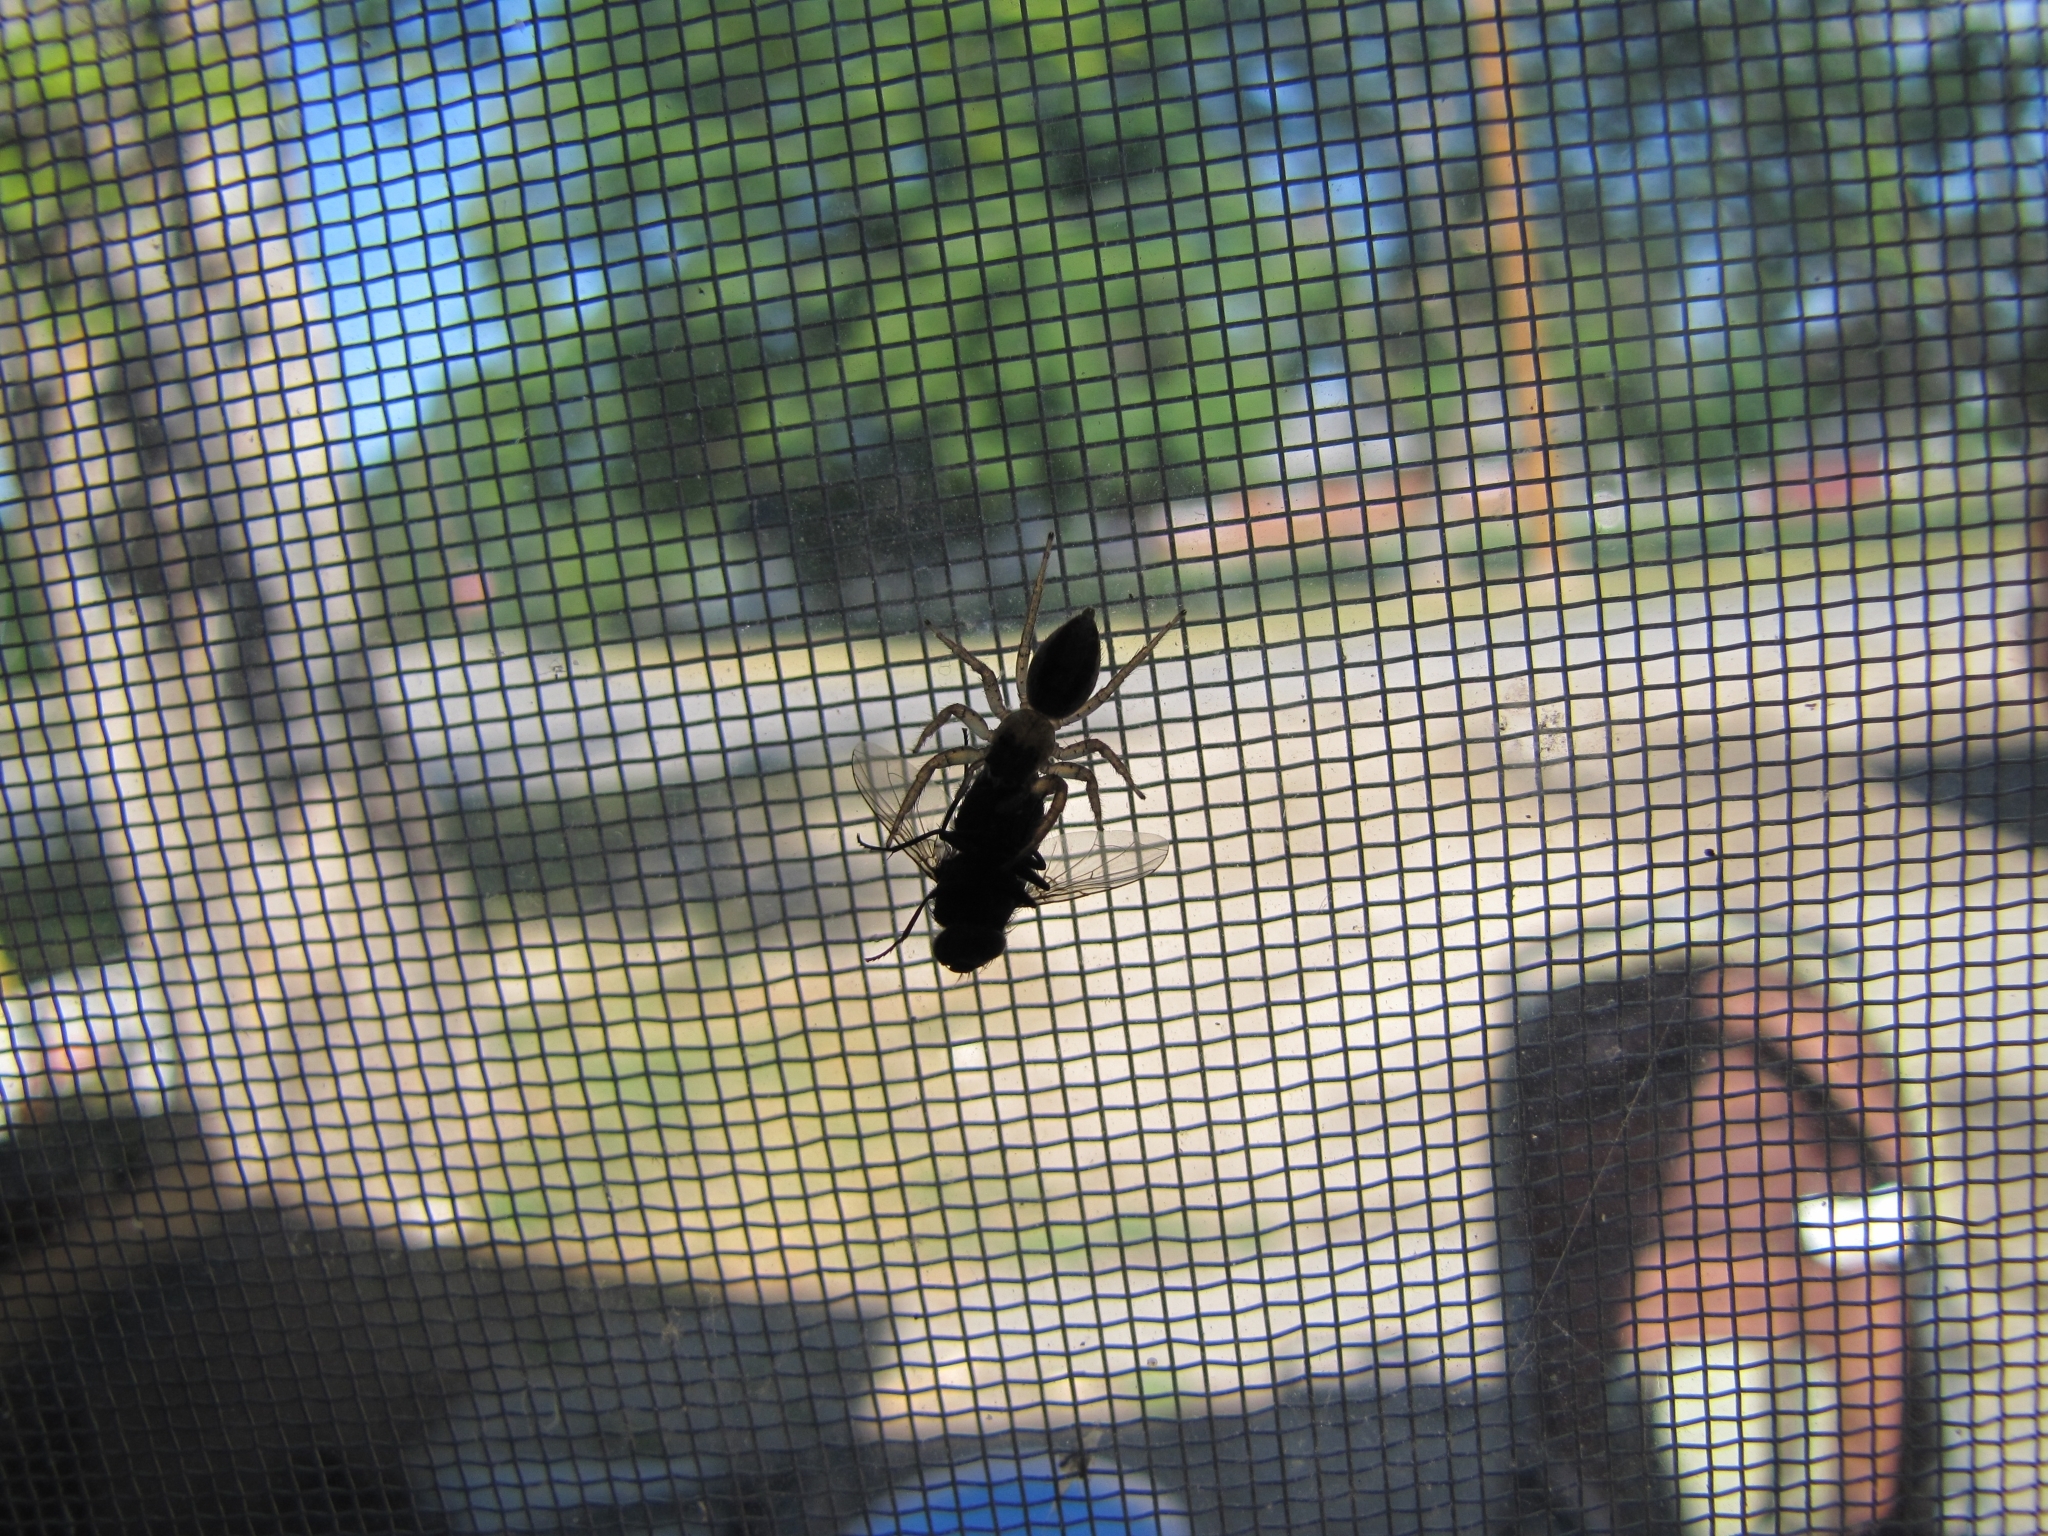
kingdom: Animalia
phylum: Arthropoda
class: Arachnida
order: Araneae
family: Salticidae
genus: Maevia
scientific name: Maevia inclemens
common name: Dimorphic jumper
